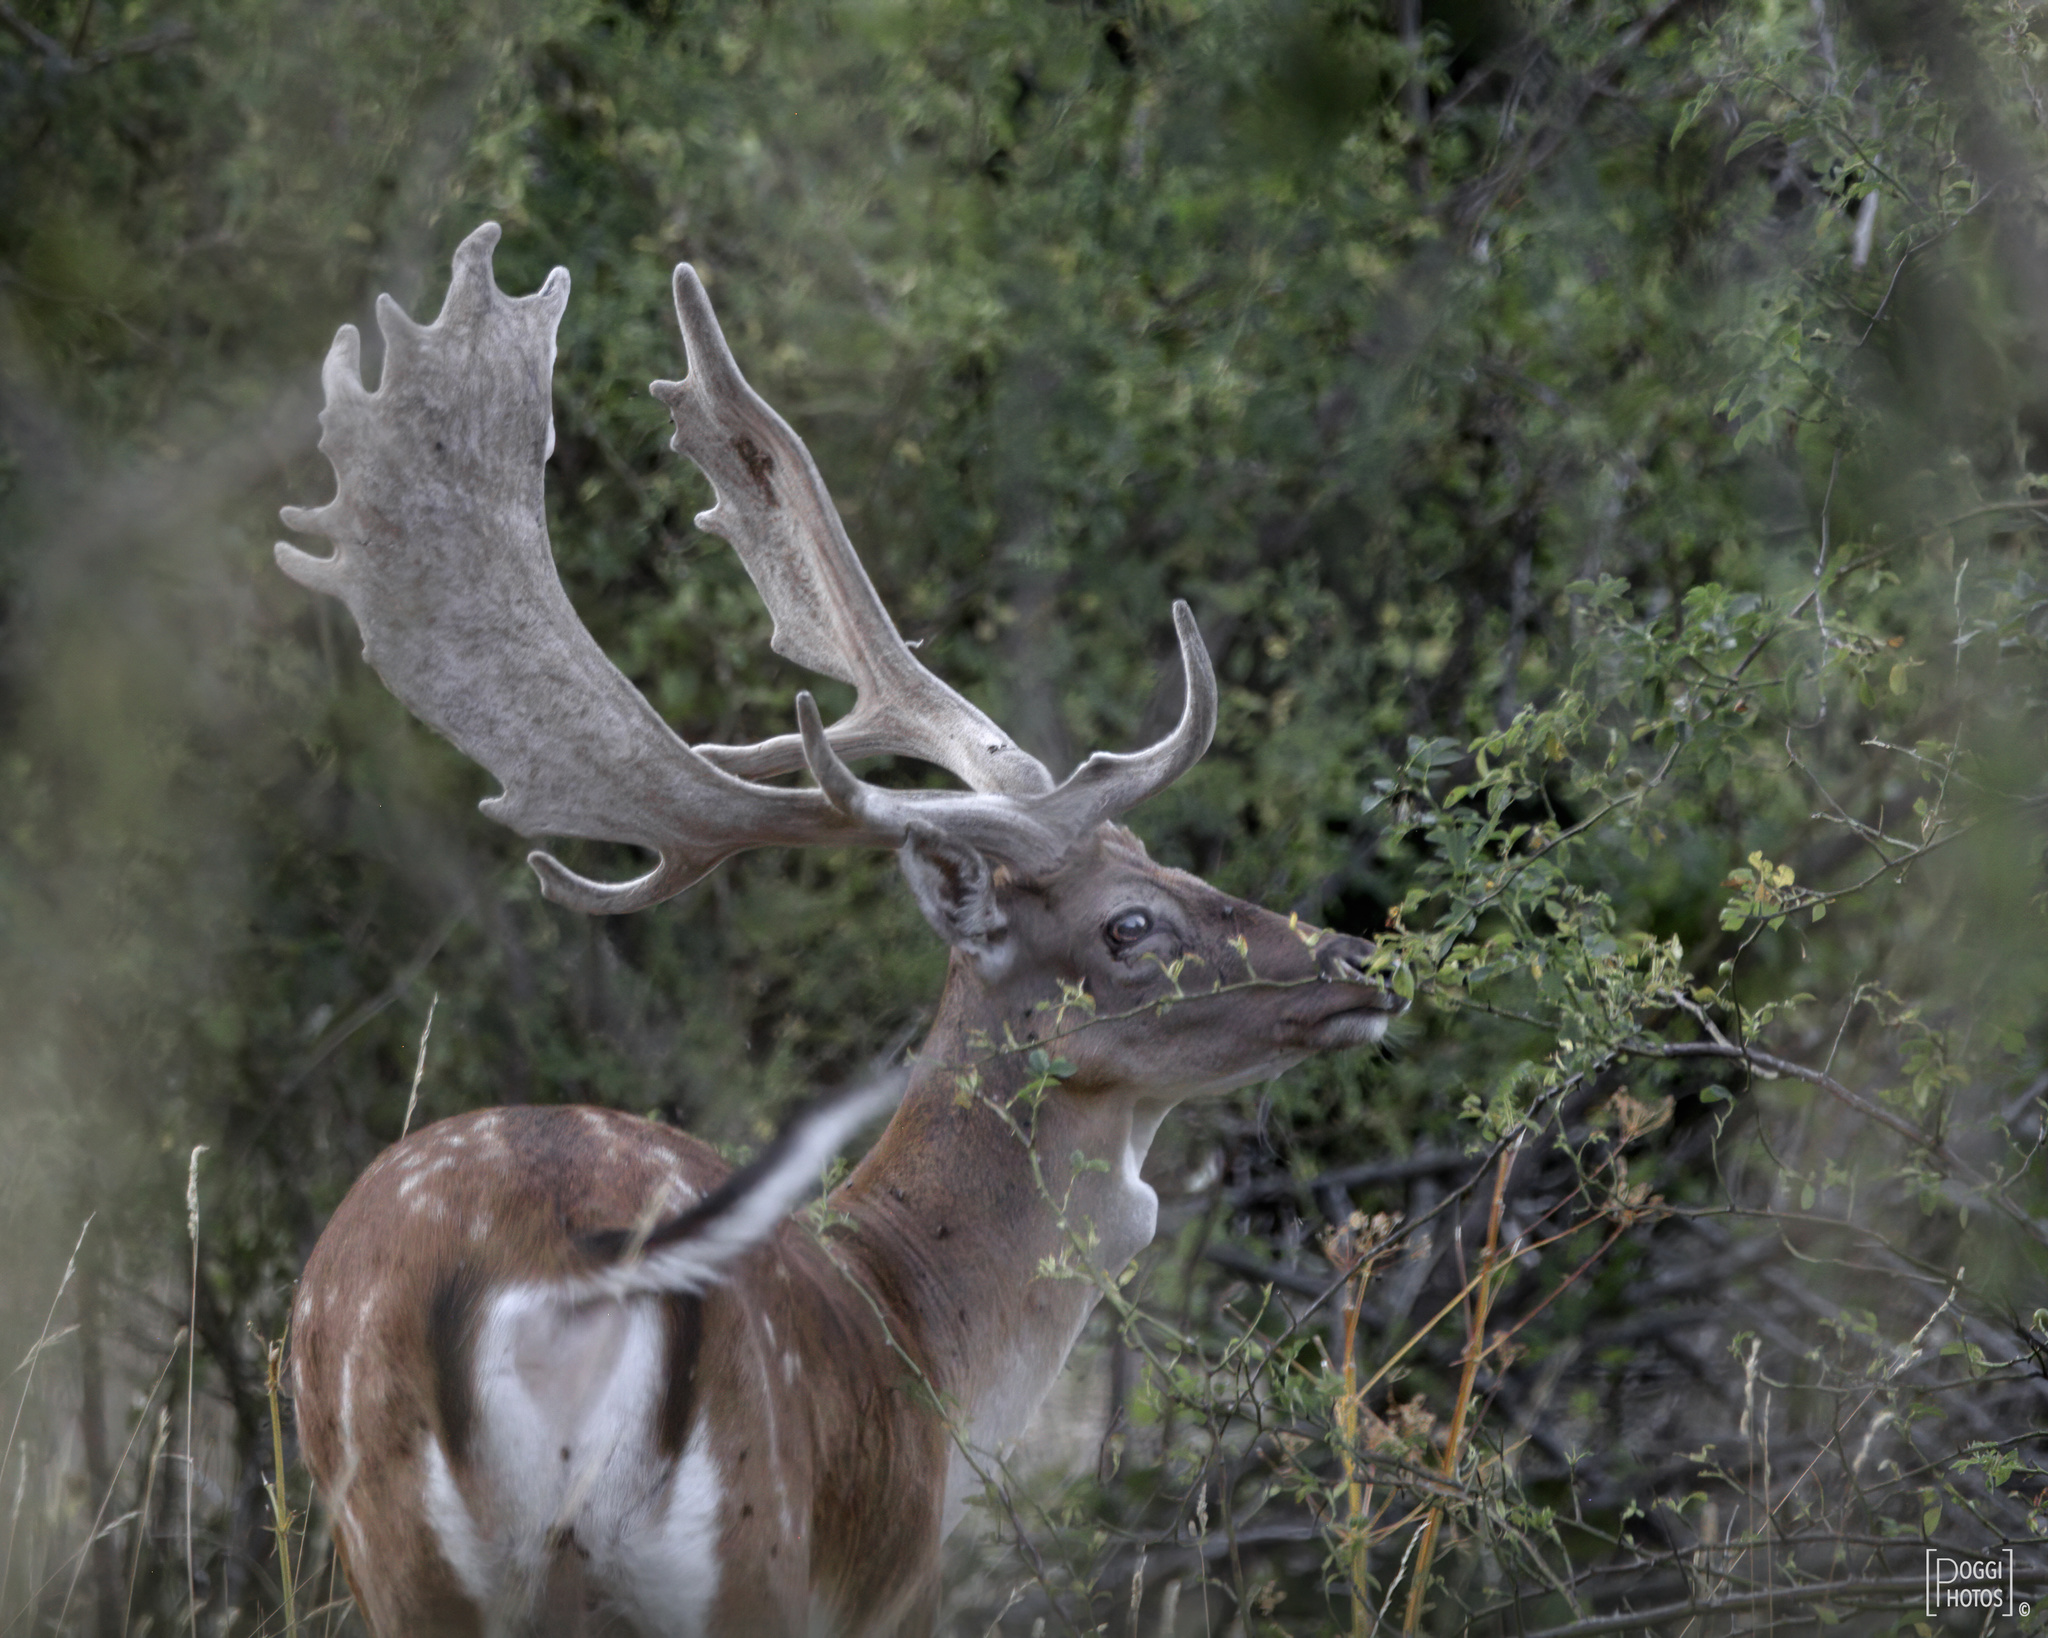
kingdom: Animalia
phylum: Chordata
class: Mammalia
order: Artiodactyla
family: Cervidae
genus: Dama
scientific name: Dama dama
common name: Fallow deer
